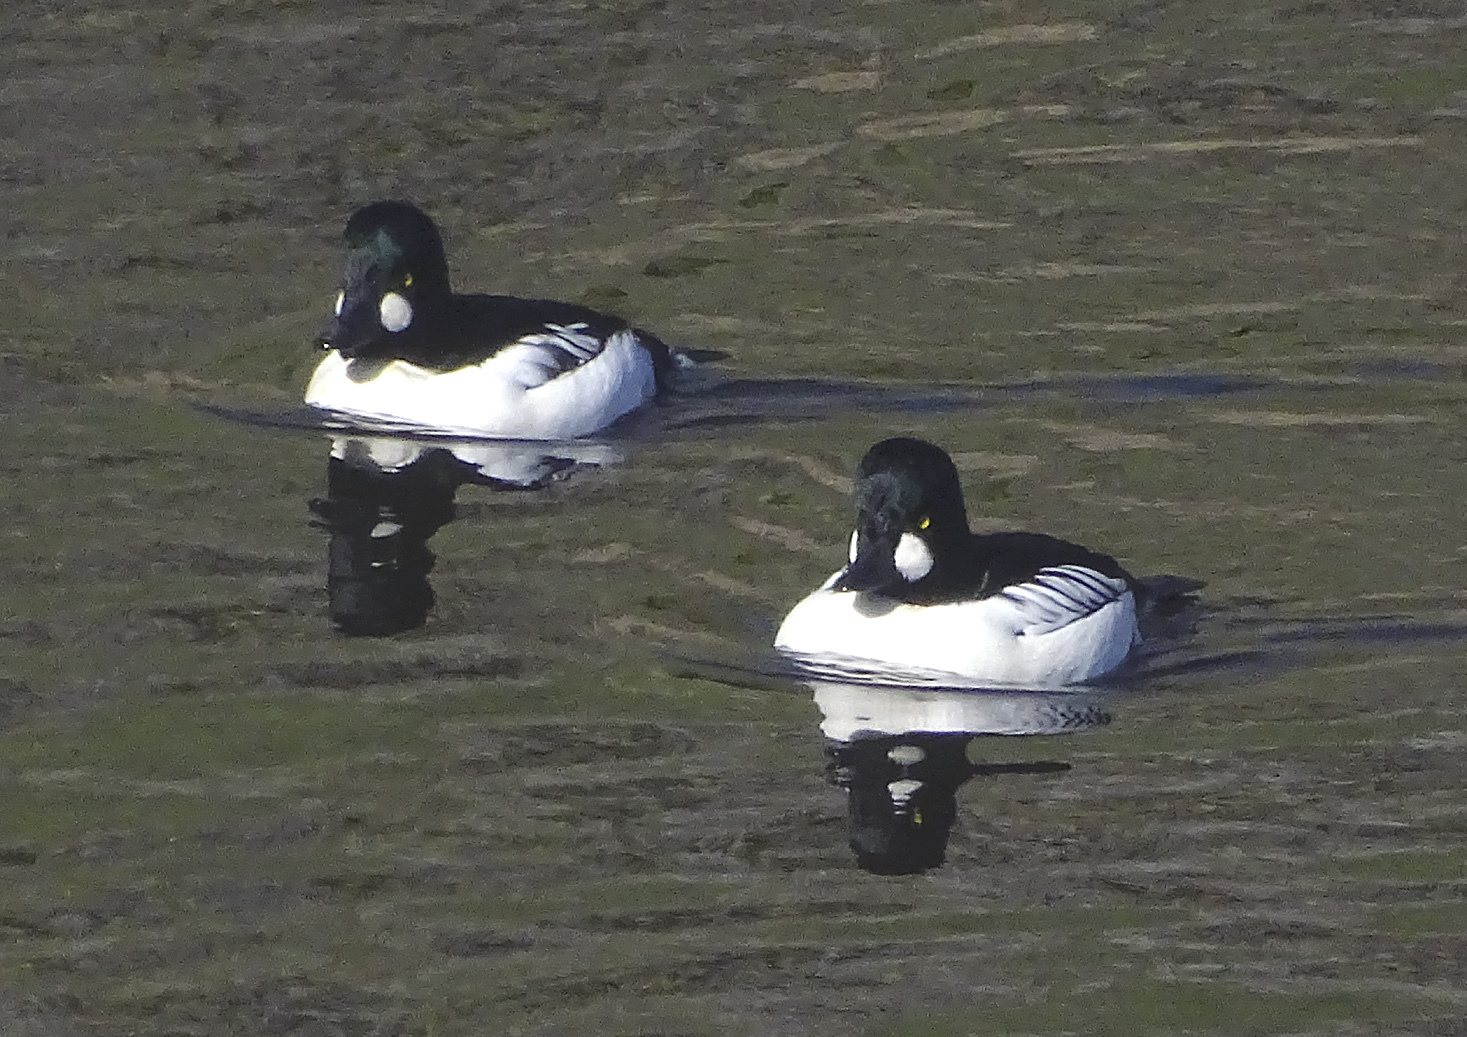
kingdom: Animalia
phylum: Chordata
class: Aves
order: Anseriformes
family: Anatidae
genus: Bucephala
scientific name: Bucephala clangula
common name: Common goldeneye
